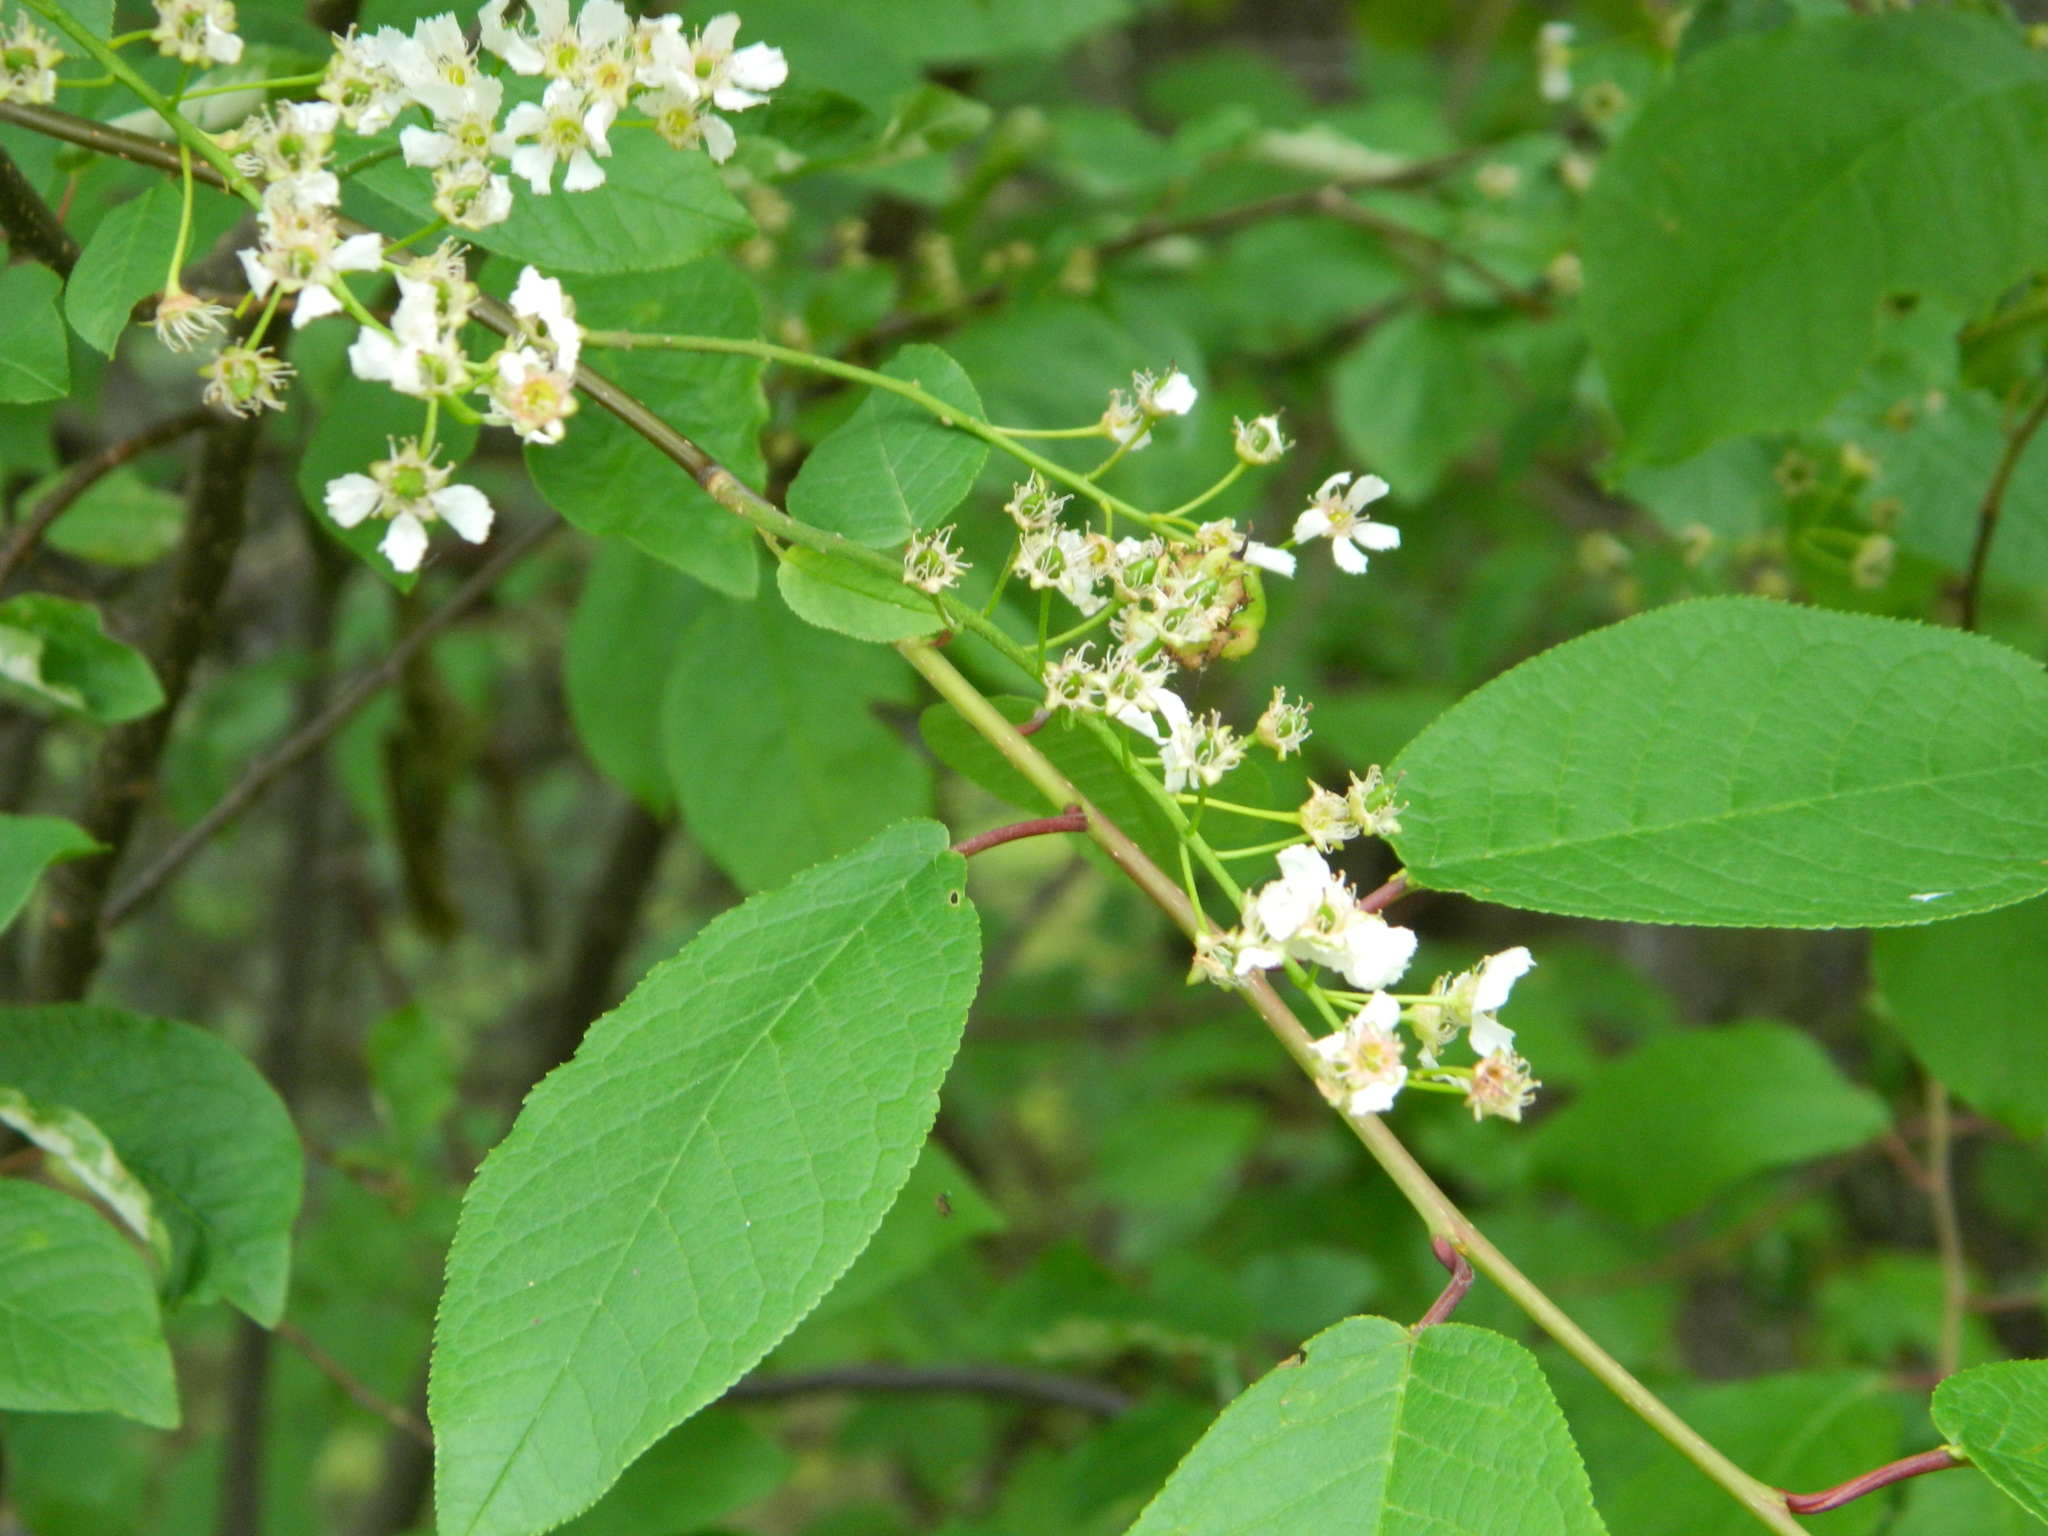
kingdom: Plantae
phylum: Tracheophyta
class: Magnoliopsida
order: Rosales
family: Rosaceae
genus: Prunus
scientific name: Prunus padus
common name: Bird cherry
